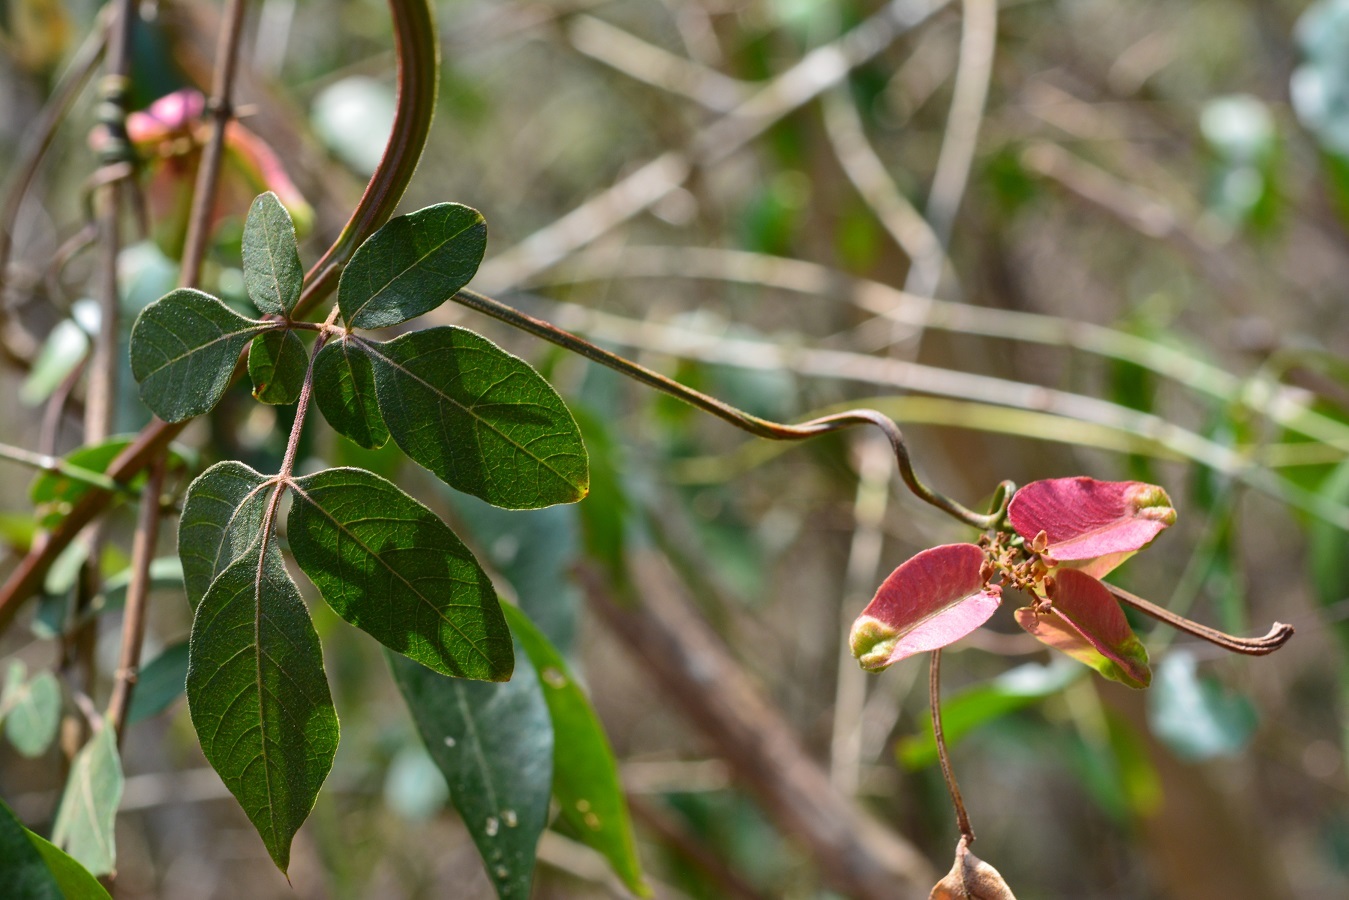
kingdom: Plantae
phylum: Tracheophyta
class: Magnoliopsida
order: Sapindales
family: Sapindaceae
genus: Serjania
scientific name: Serjania racemosa
